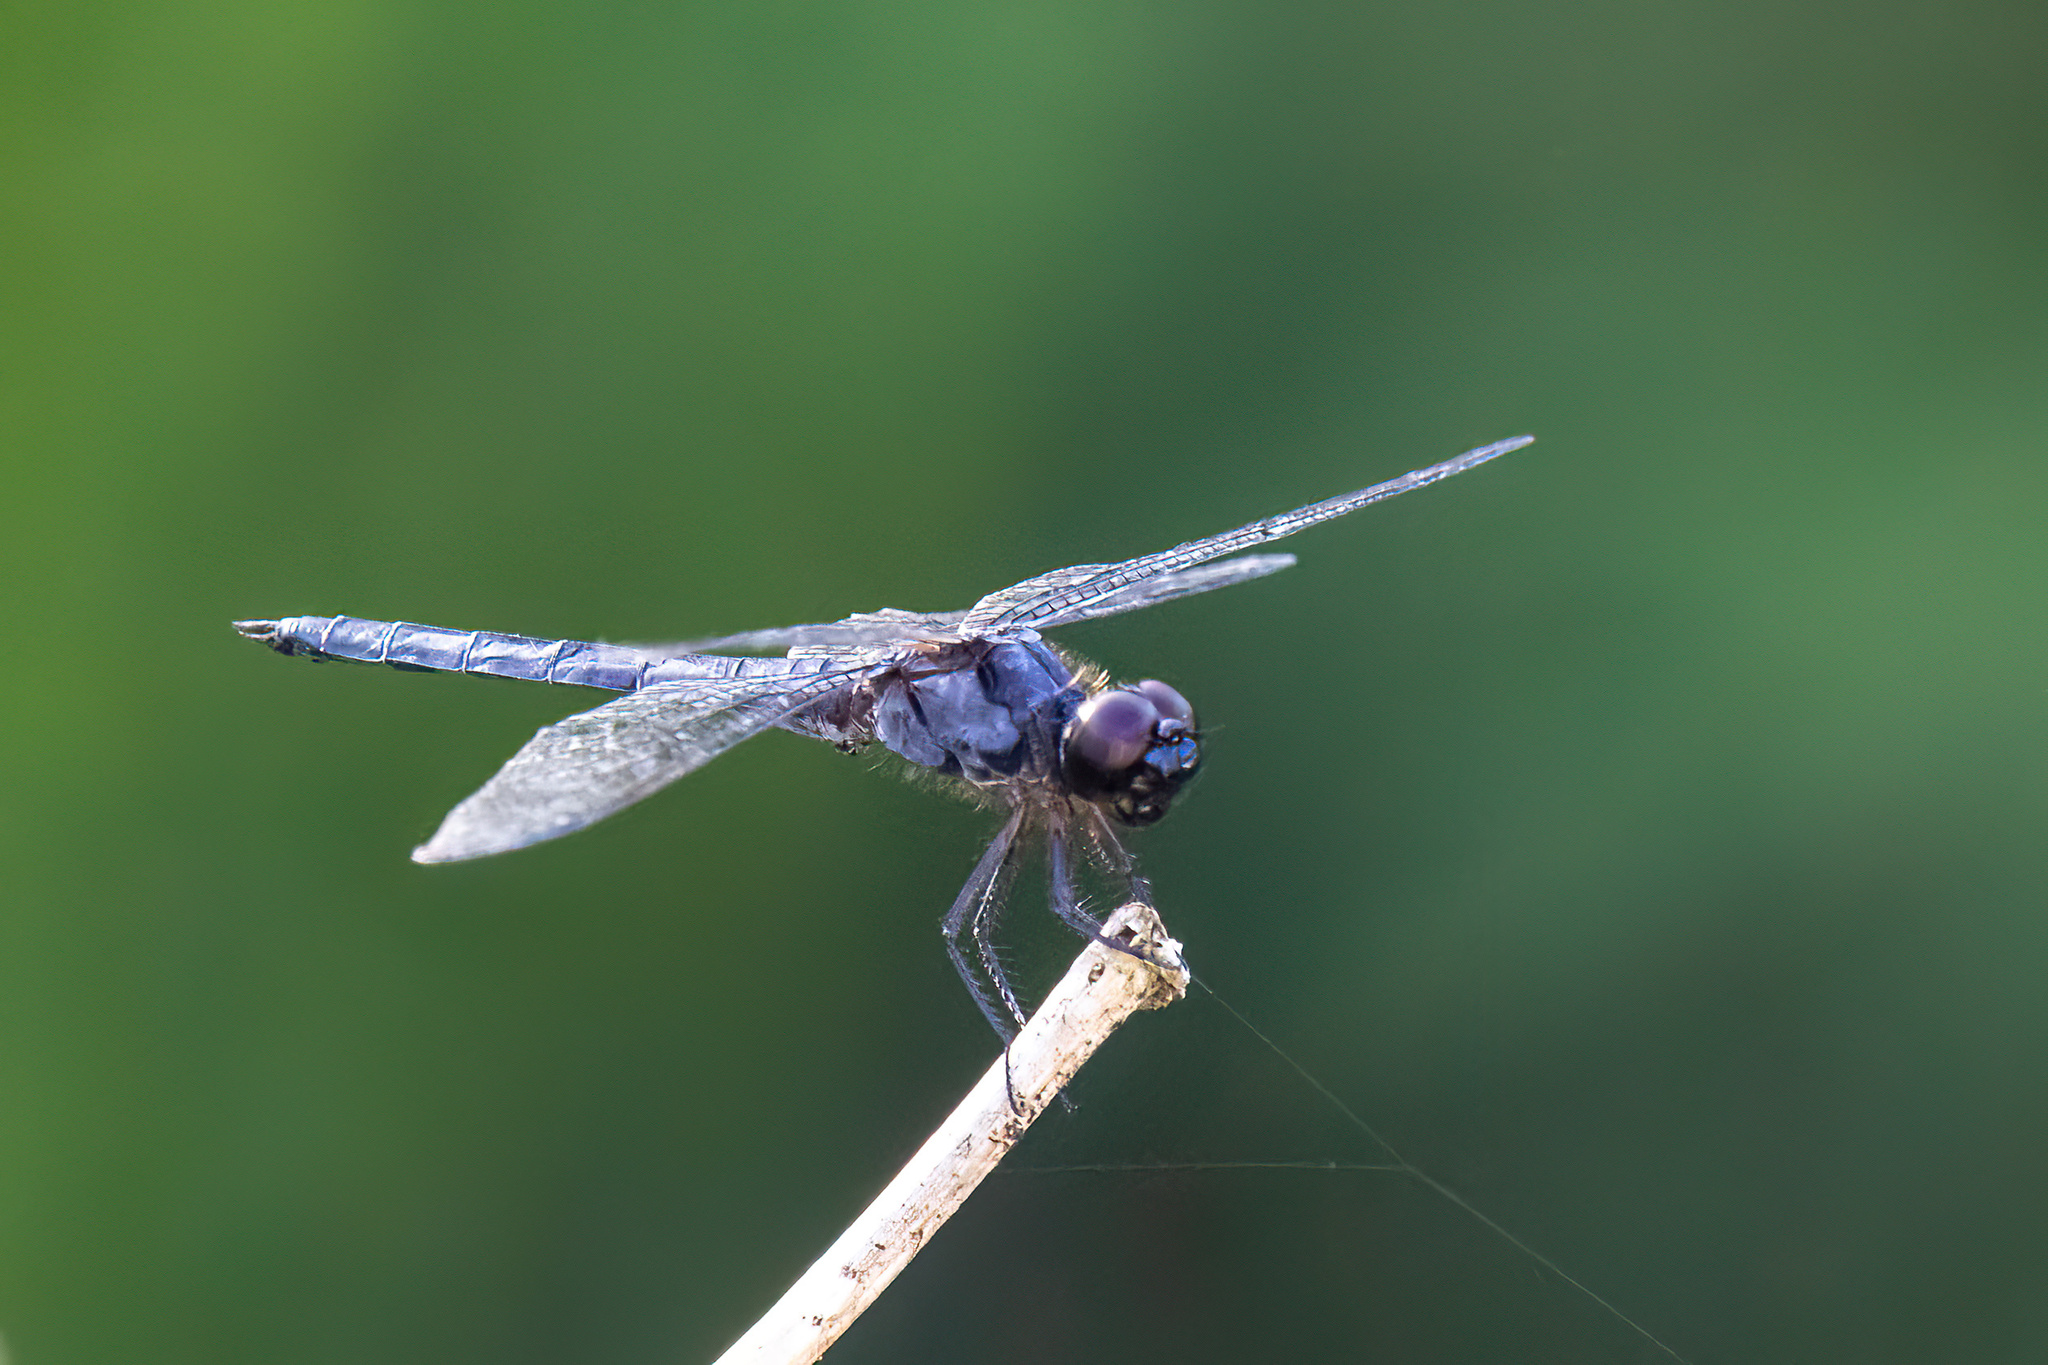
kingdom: Animalia
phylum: Arthropoda
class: Insecta
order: Odonata
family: Libellulidae
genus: Libellula
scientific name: Libellula incesta
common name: Slaty skimmer
